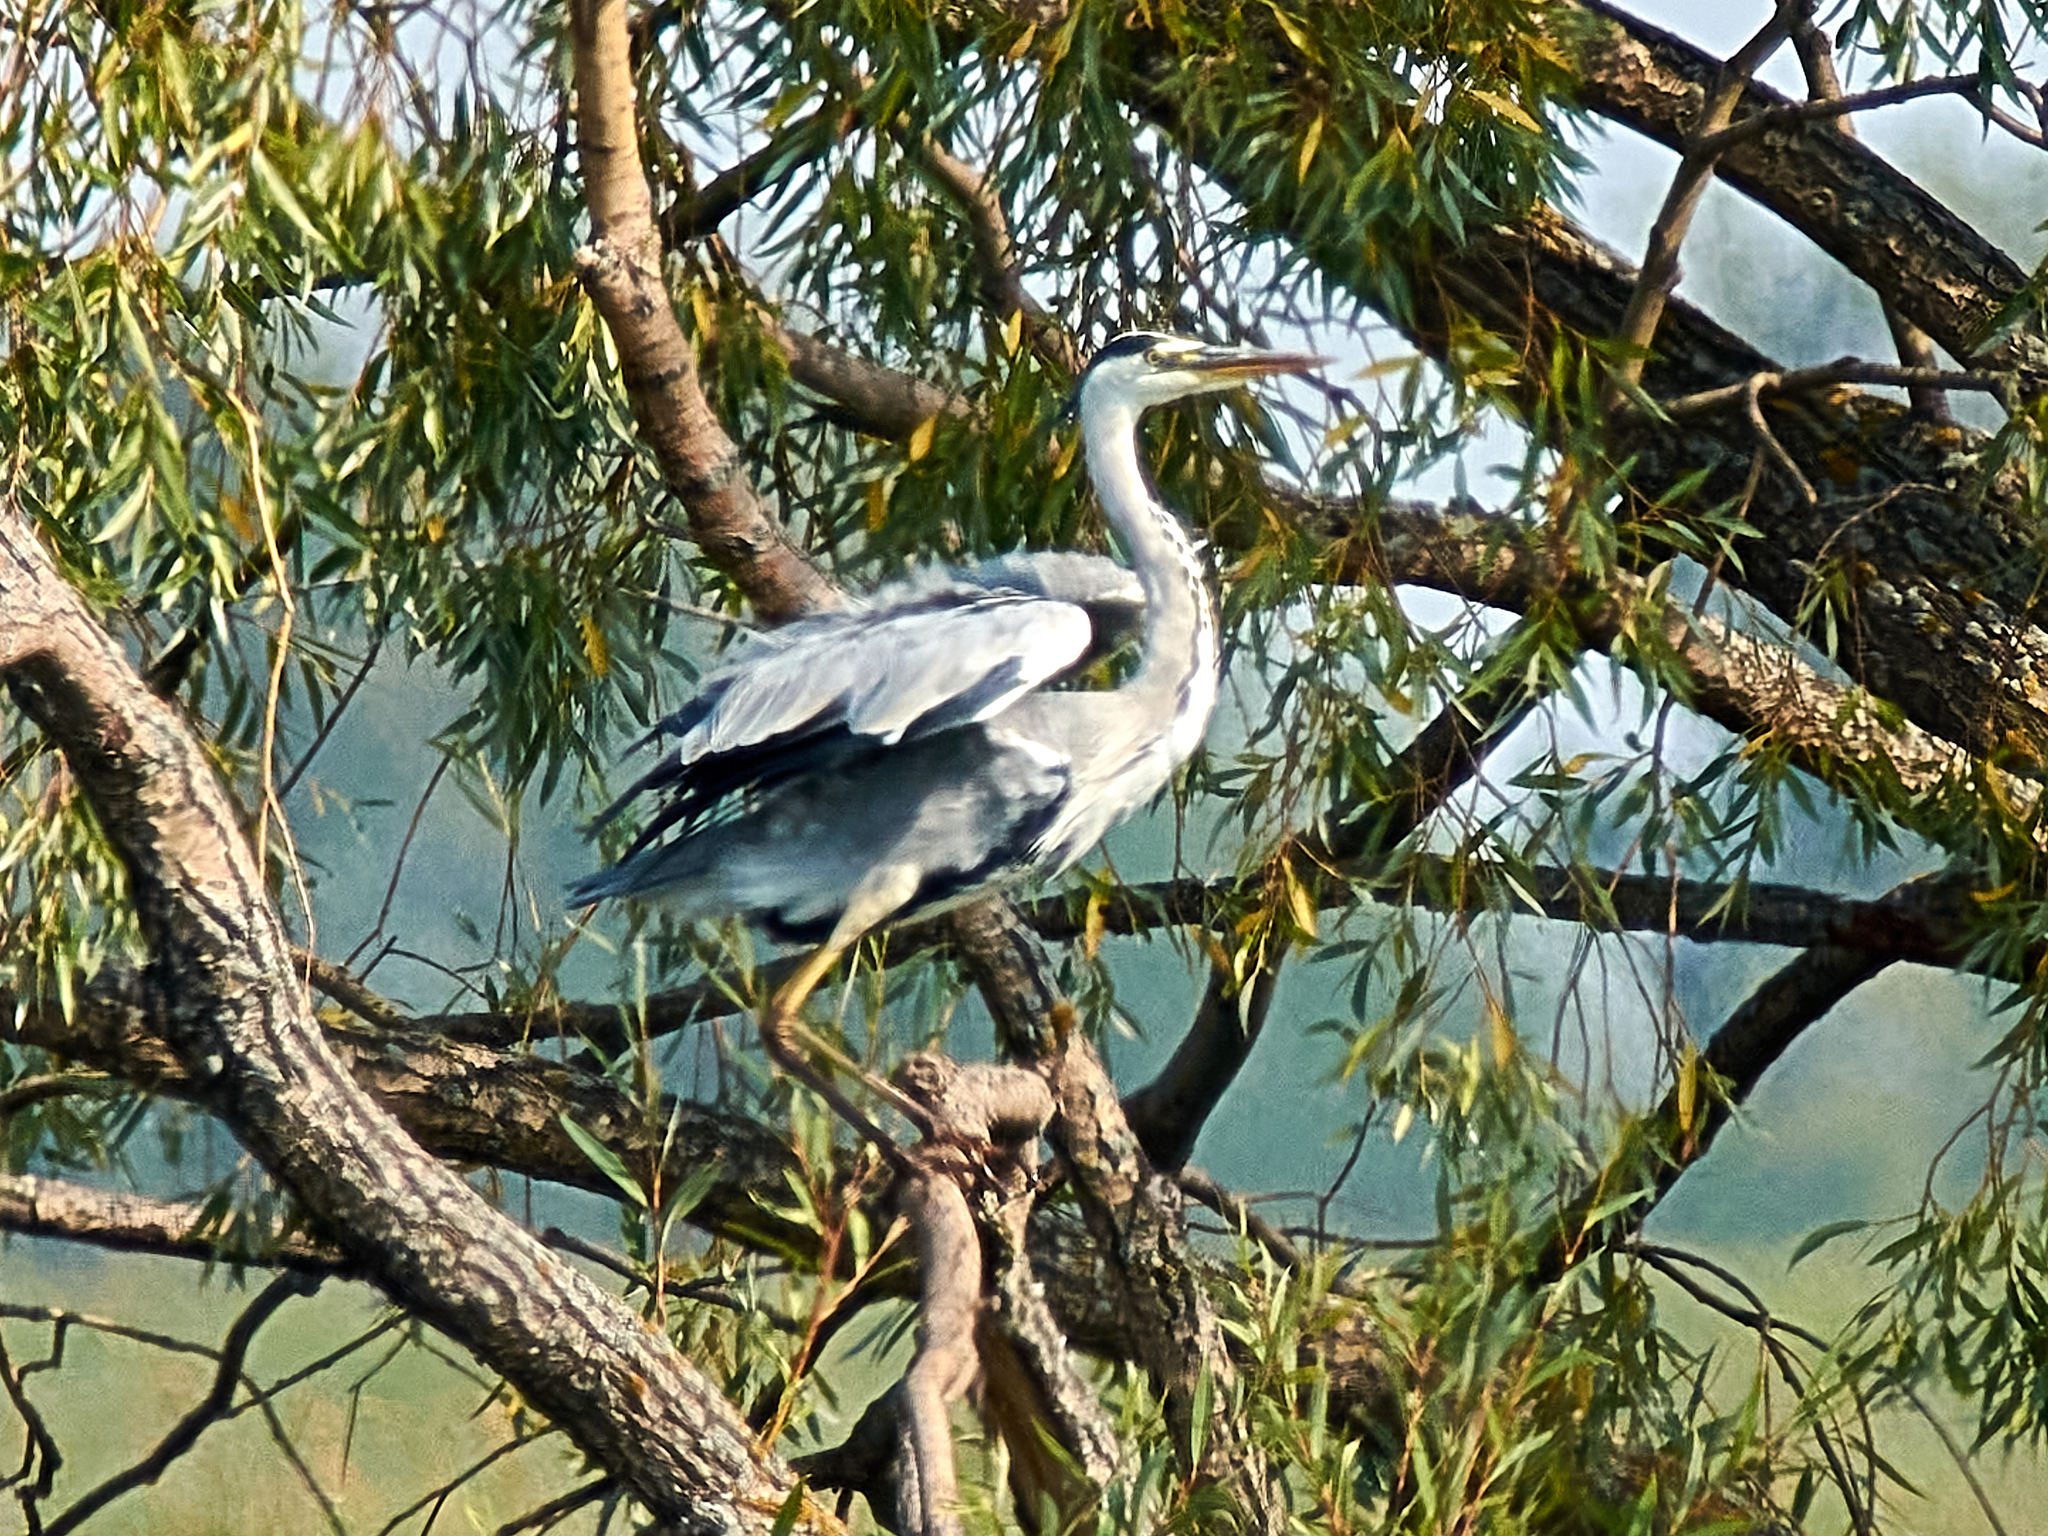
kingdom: Animalia
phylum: Chordata
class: Aves
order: Pelecaniformes
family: Ardeidae
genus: Ardea
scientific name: Ardea cinerea
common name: Grey heron
